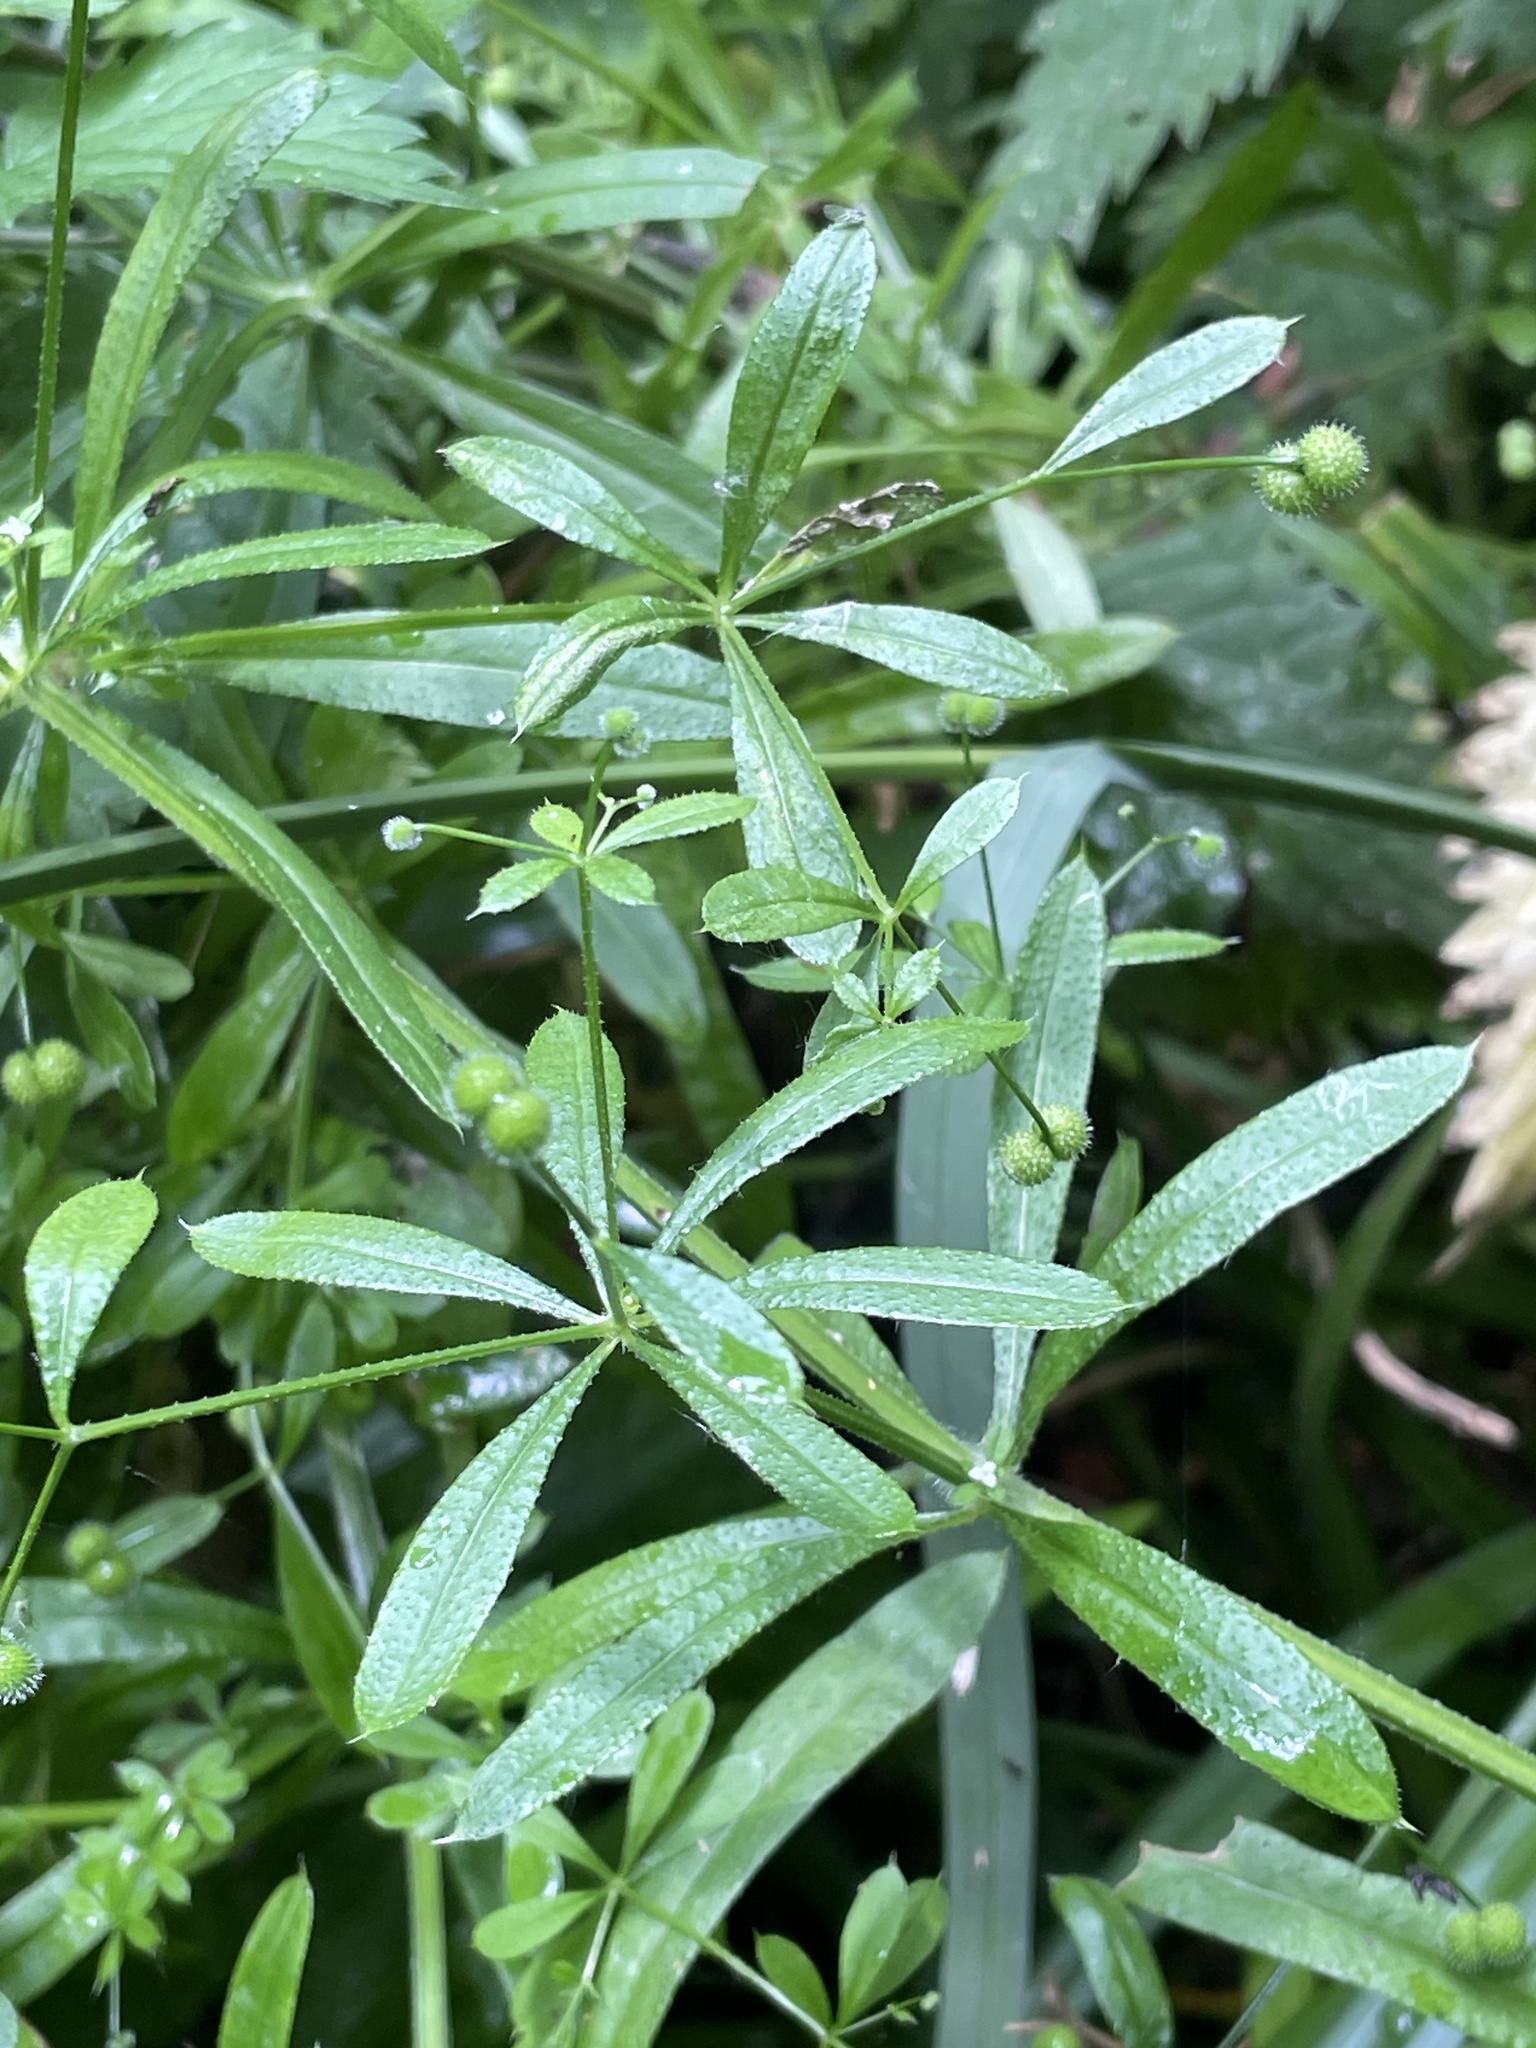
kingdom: Plantae
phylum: Tracheophyta
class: Magnoliopsida
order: Gentianales
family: Rubiaceae
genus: Galium
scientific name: Galium aparine
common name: Cleavers
